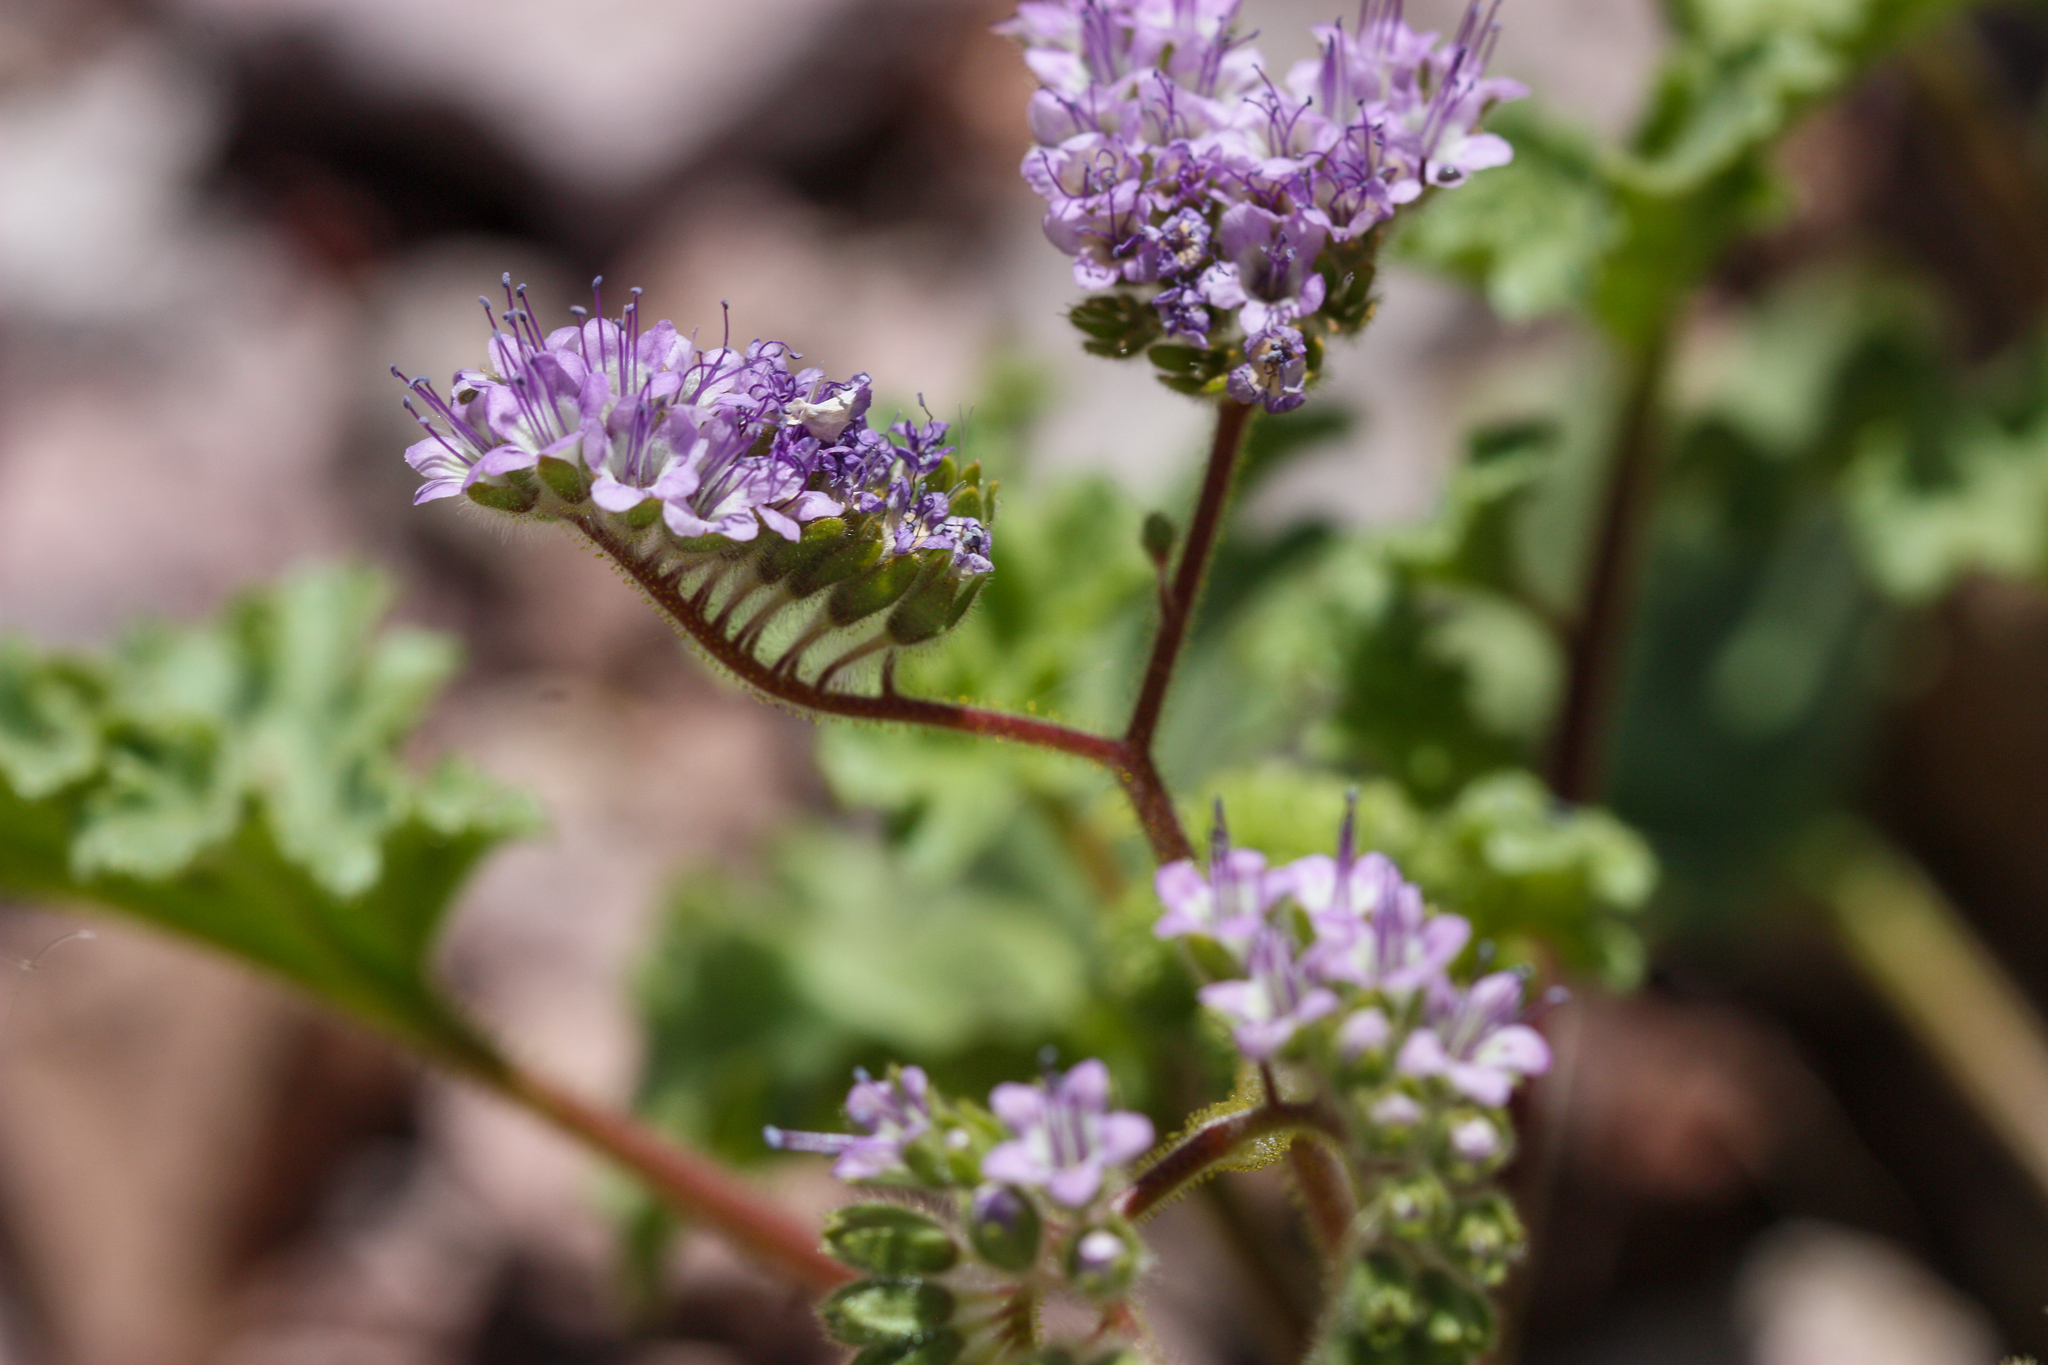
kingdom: Plantae
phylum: Tracheophyta
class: Magnoliopsida
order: Boraginales
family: Hydrophyllaceae
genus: Phacelia
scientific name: Phacelia pedicellata
